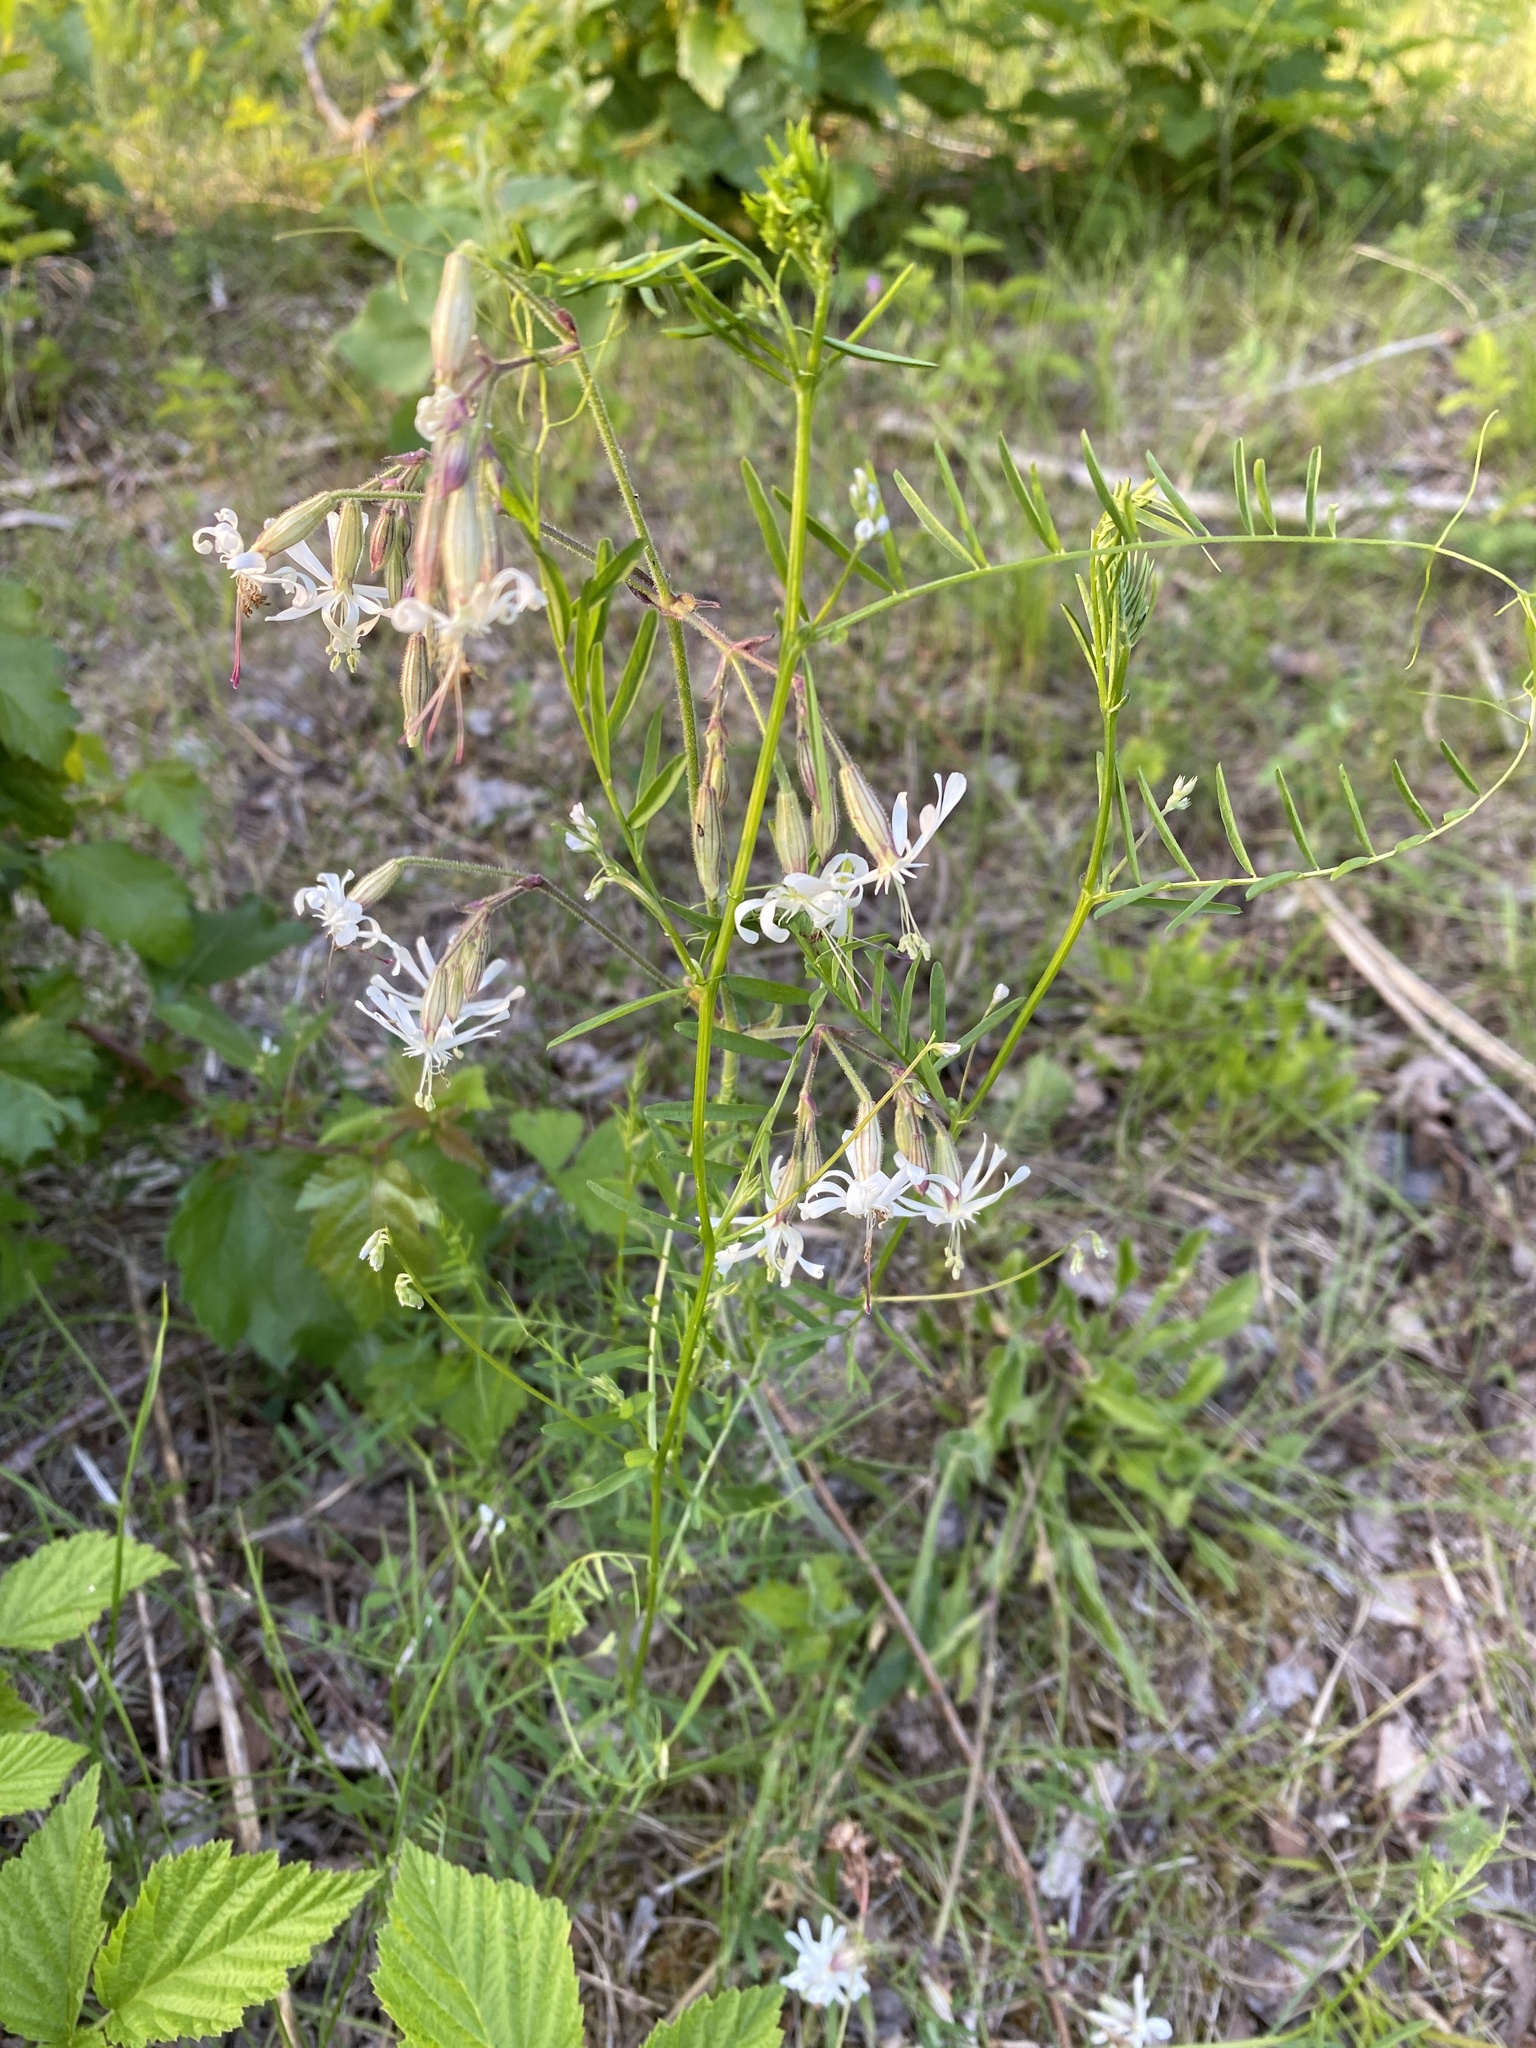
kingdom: Plantae
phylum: Tracheophyta
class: Magnoliopsida
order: Caryophyllales
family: Caryophyllaceae
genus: Silene
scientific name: Silene nutans
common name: Nottingham catchfly
